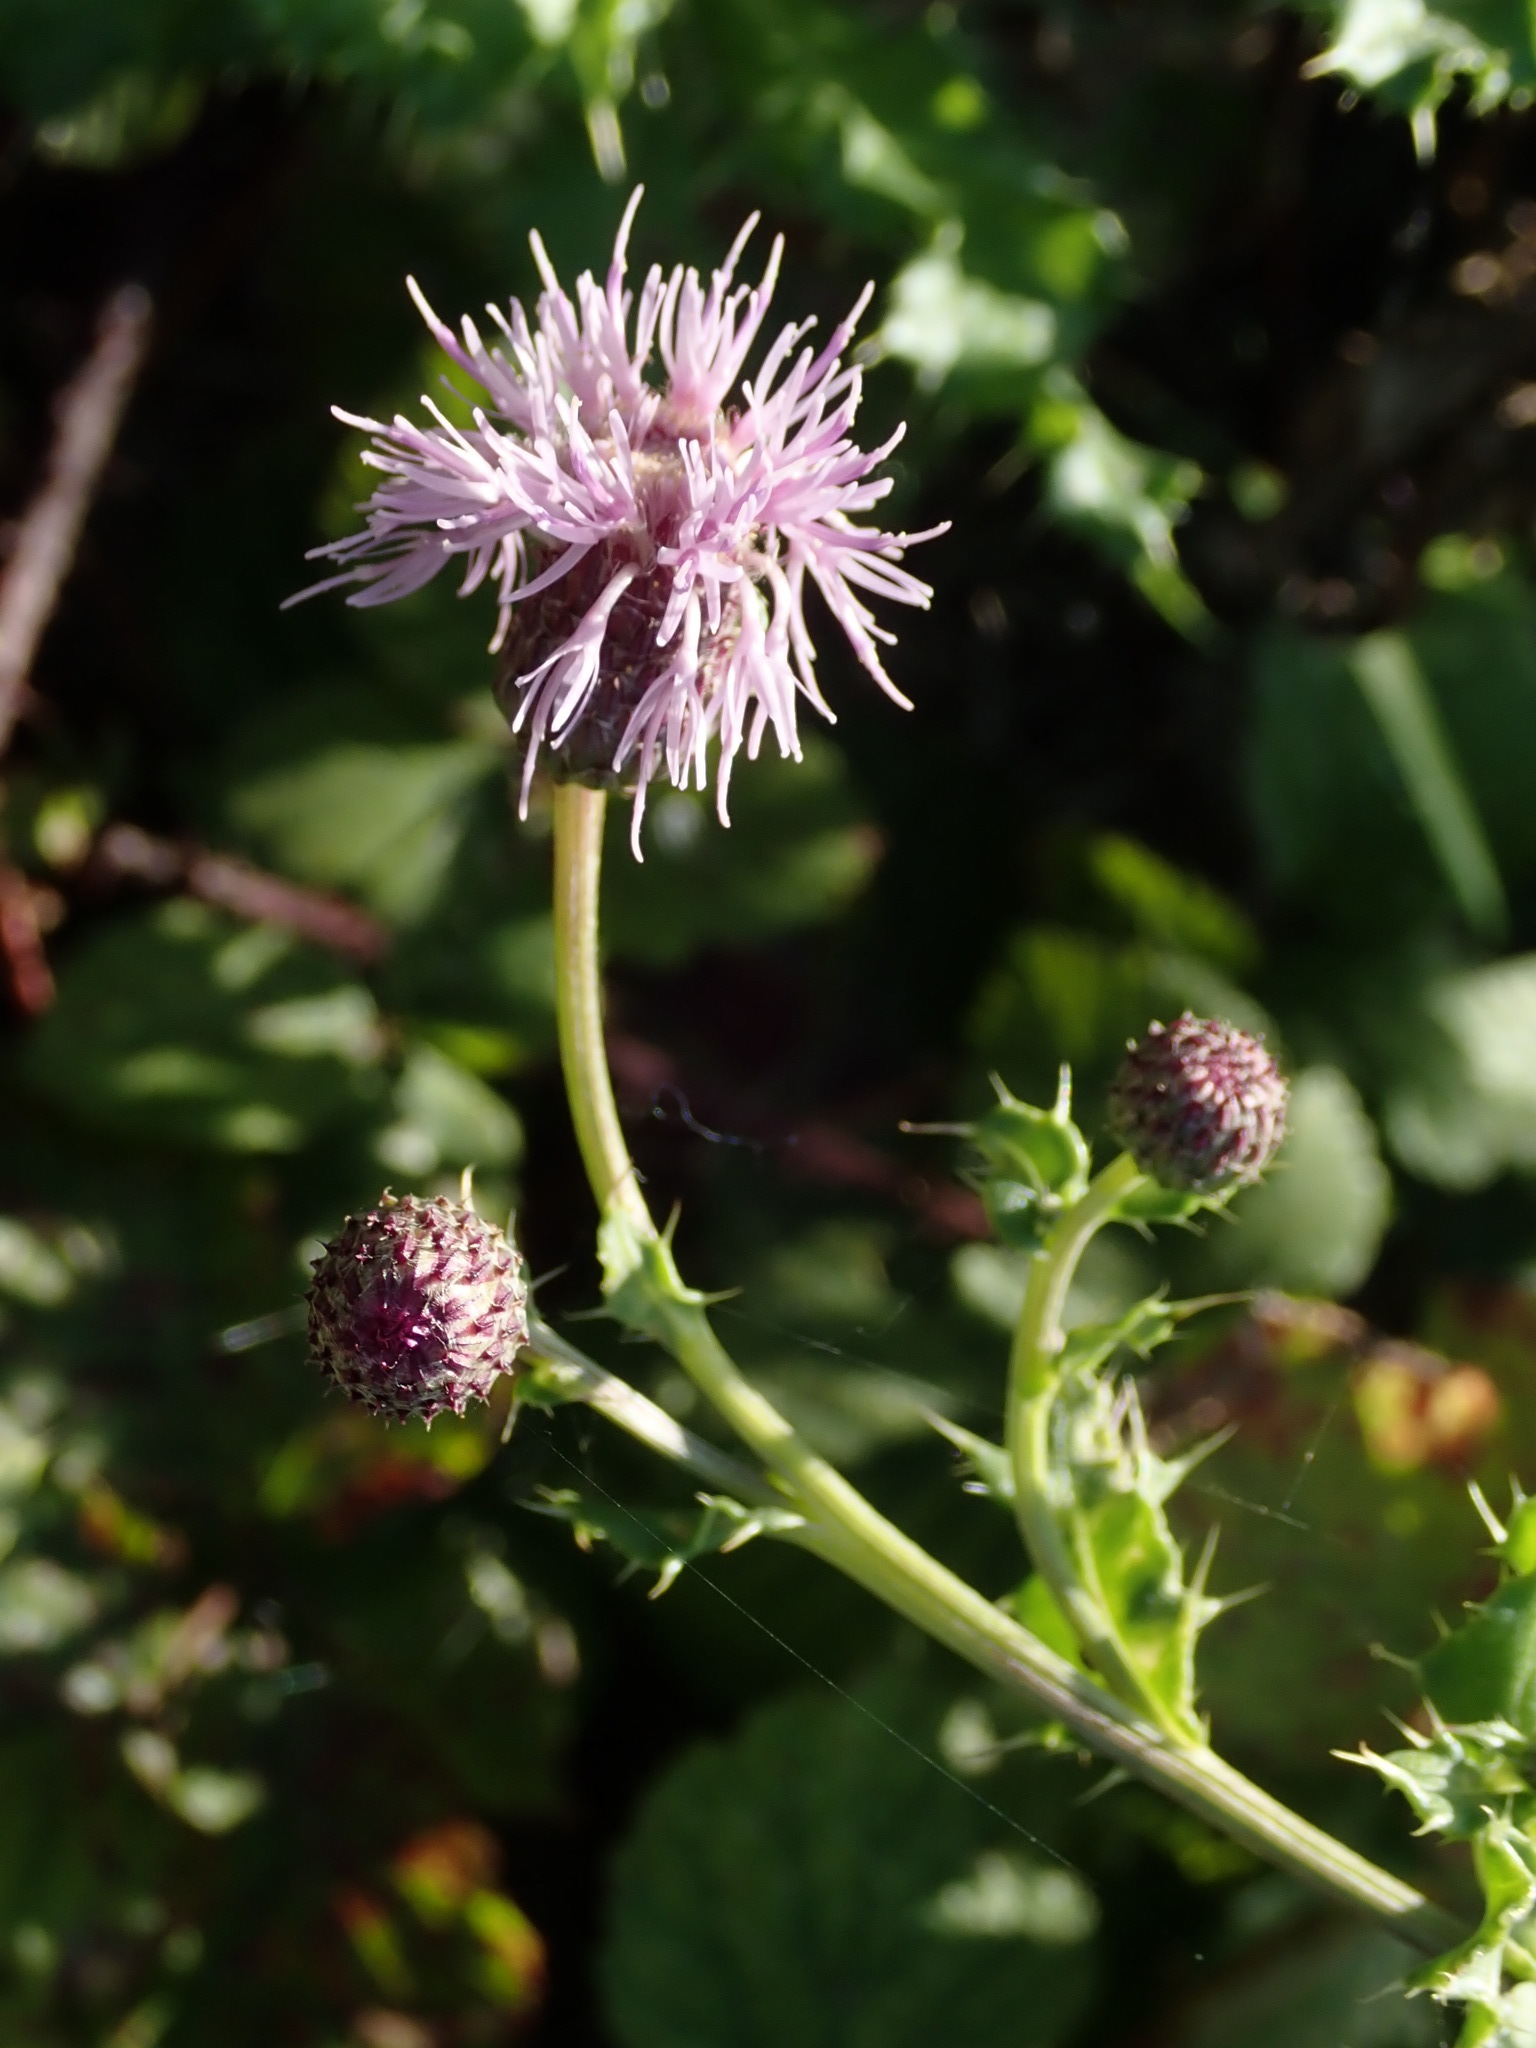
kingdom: Plantae
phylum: Tracheophyta
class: Magnoliopsida
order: Asterales
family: Asteraceae
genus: Cirsium
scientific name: Cirsium arvense
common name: Creeping thistle
